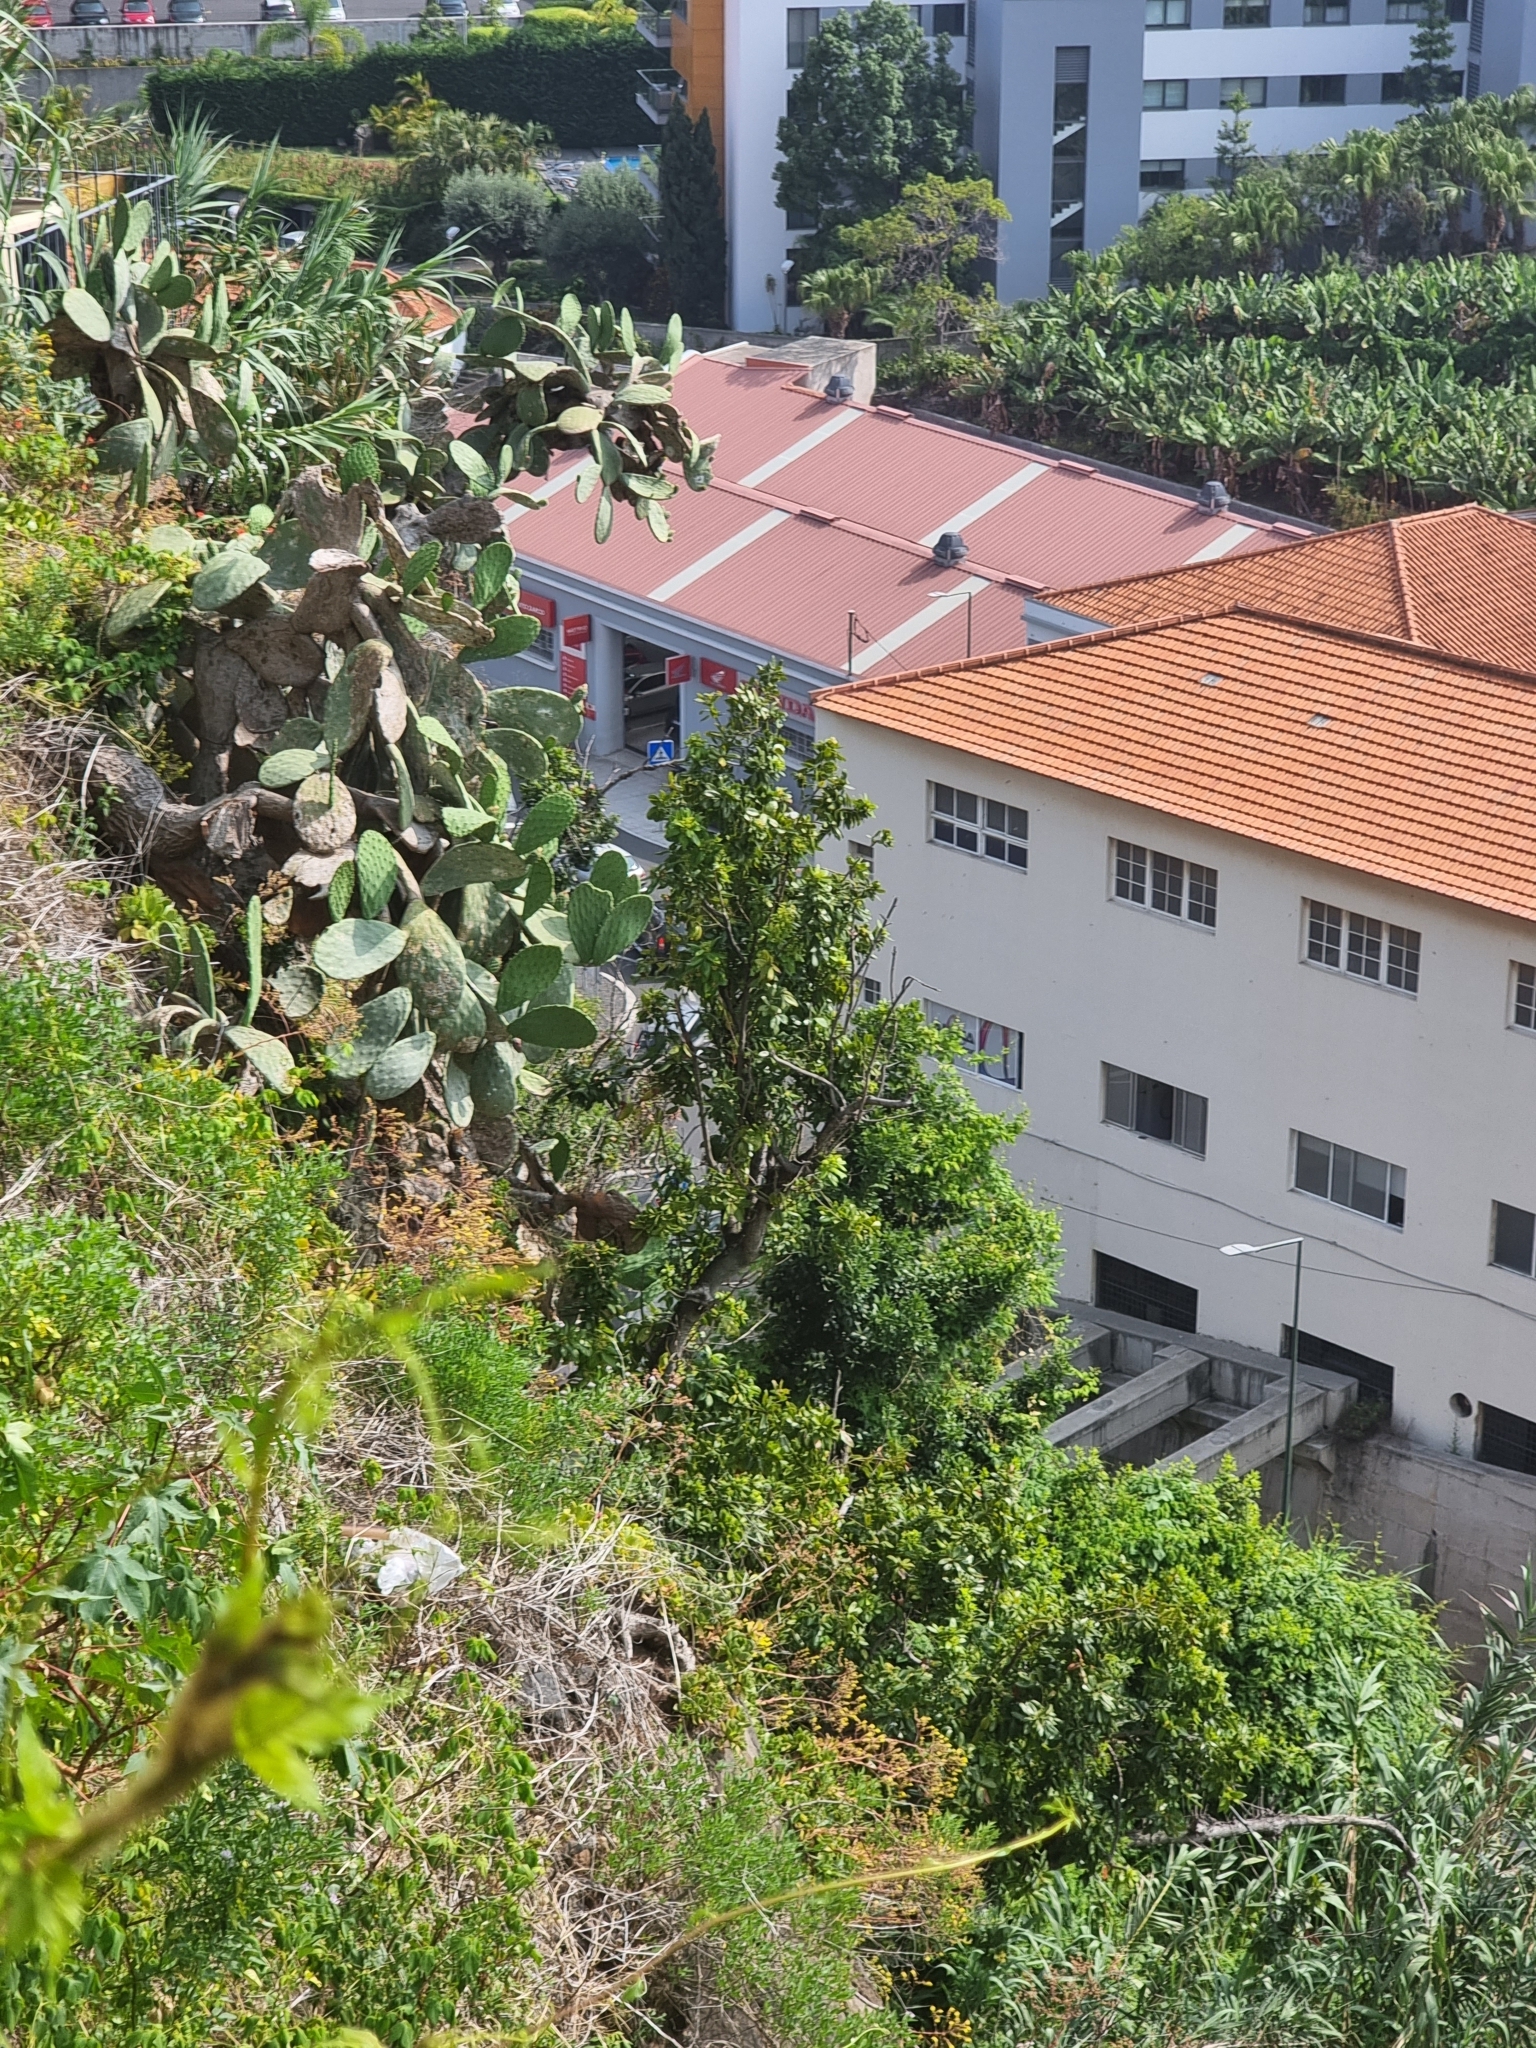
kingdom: Plantae
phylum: Tracheophyta
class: Magnoliopsida
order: Laurales
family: Lauraceae
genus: Apollonias
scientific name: Apollonias barbujana
